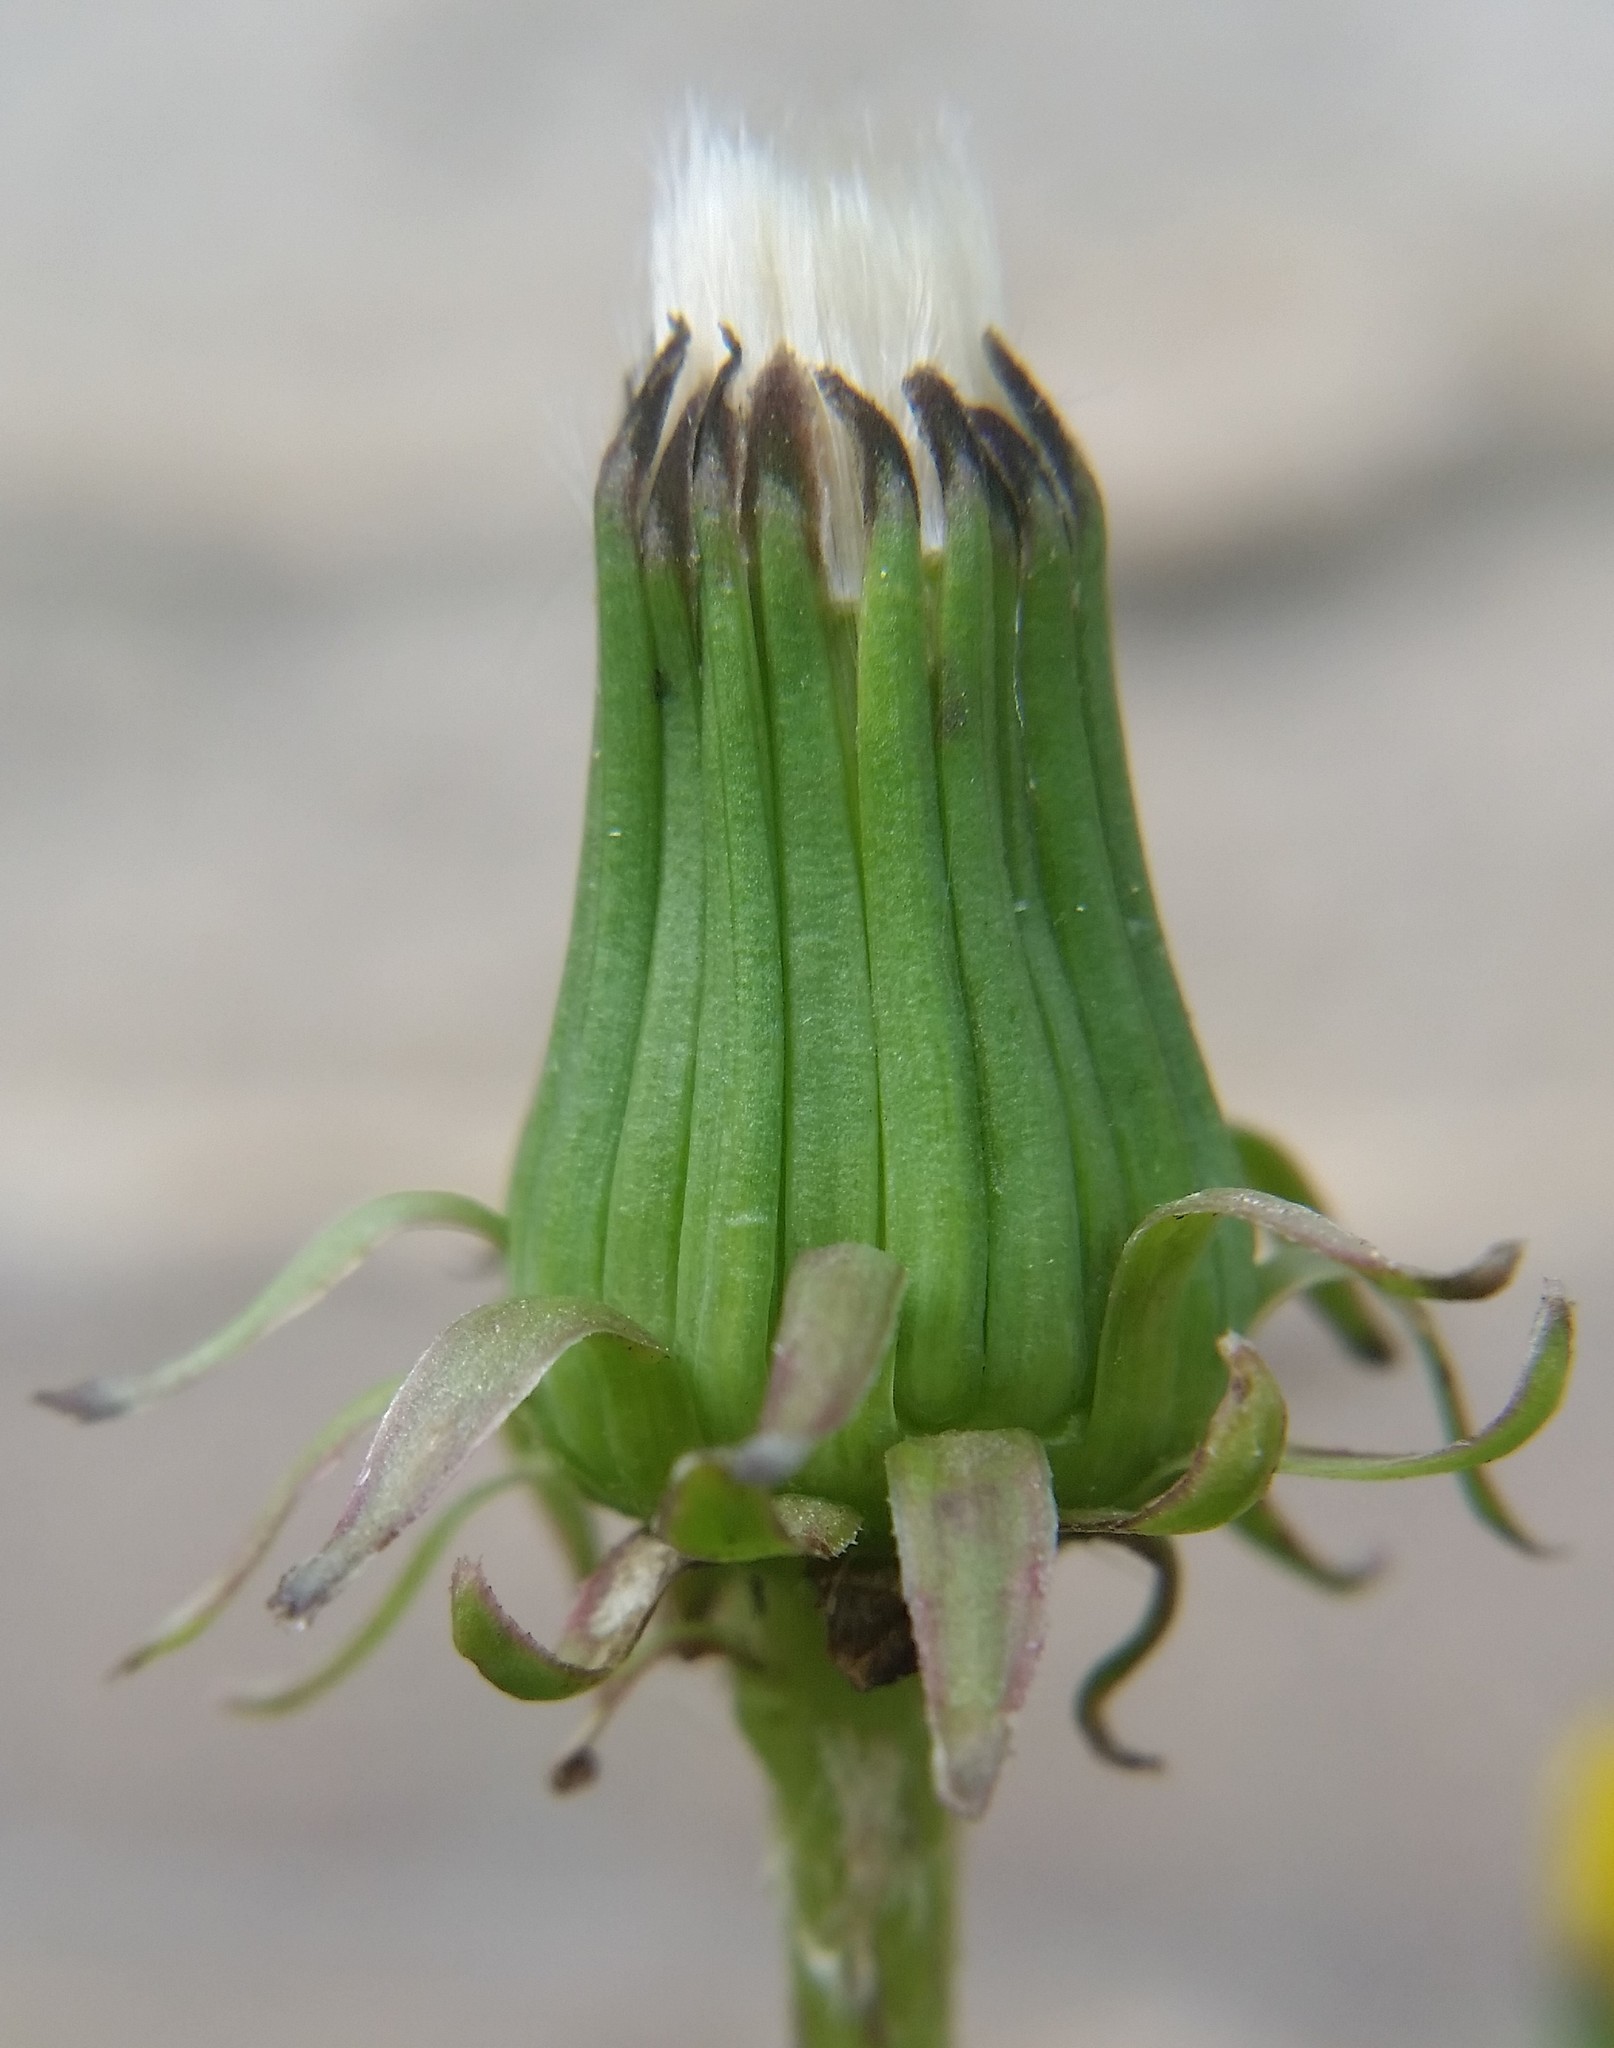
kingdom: Plantae
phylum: Tracheophyta
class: Magnoliopsida
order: Asterales
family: Asteraceae
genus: Taraxacum
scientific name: Taraxacum officinale
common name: Common dandelion
